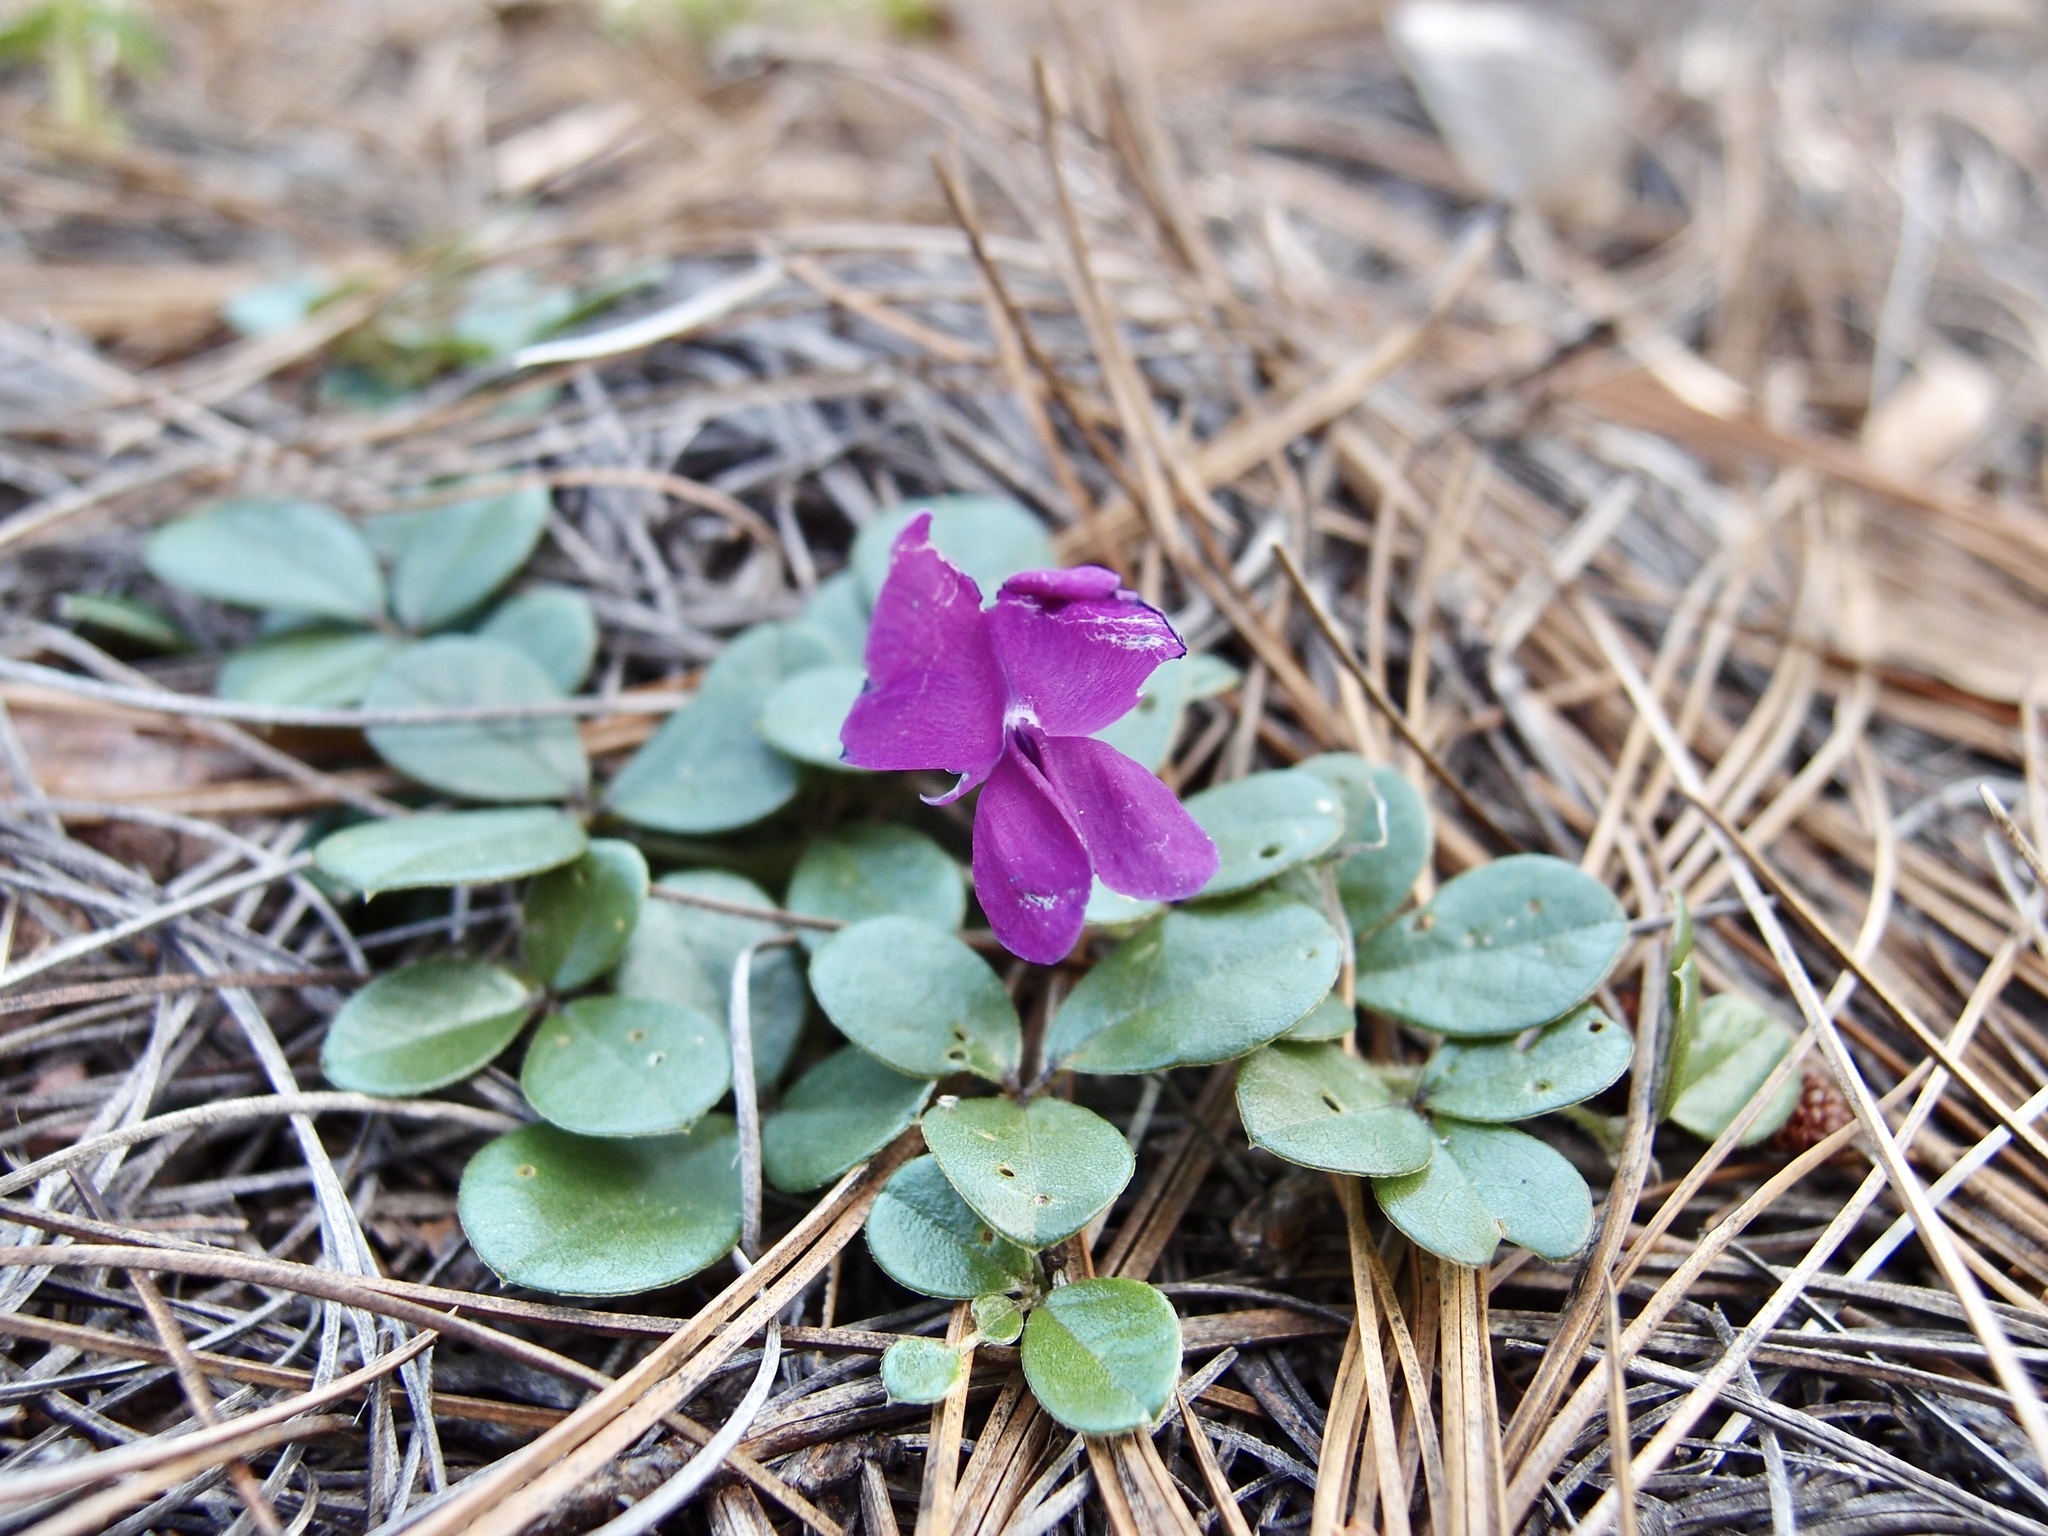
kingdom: Plantae
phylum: Tracheophyta
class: Magnoliopsida
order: Fabales
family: Fabaceae
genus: Cologania
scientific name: Cologania obovata
